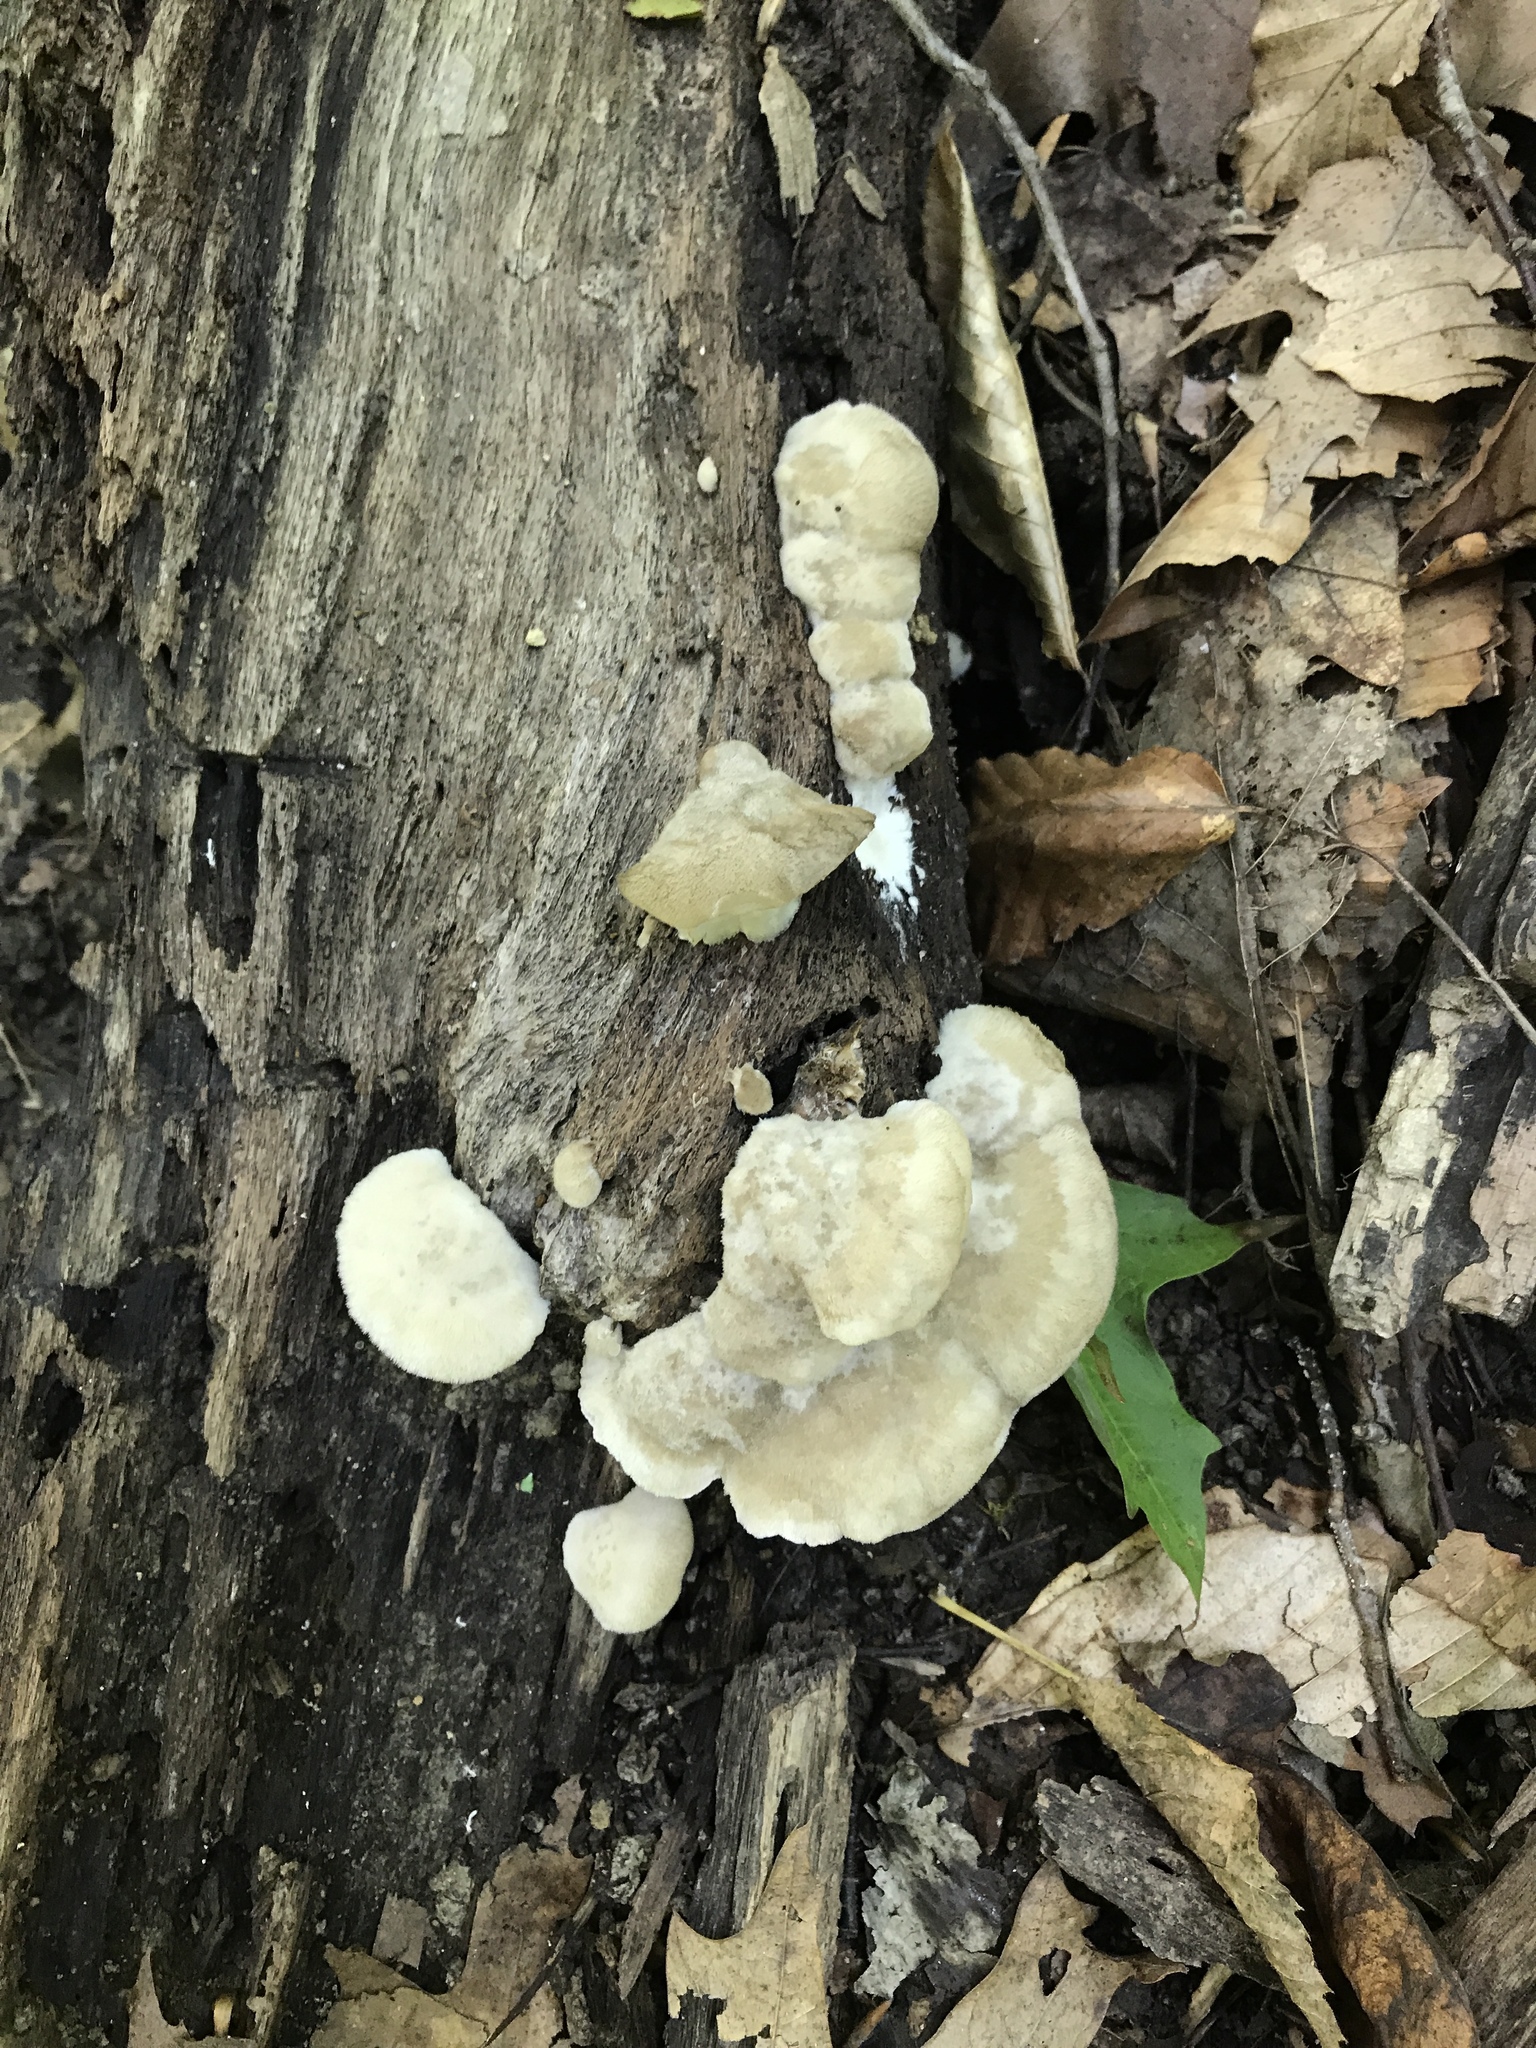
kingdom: Fungi
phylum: Basidiomycota
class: Agaricomycetes
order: Polyporales
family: Fomitopsidaceae
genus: Niveoporofomes
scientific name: Niveoporofomes spraguei
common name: Green cheese polypore
